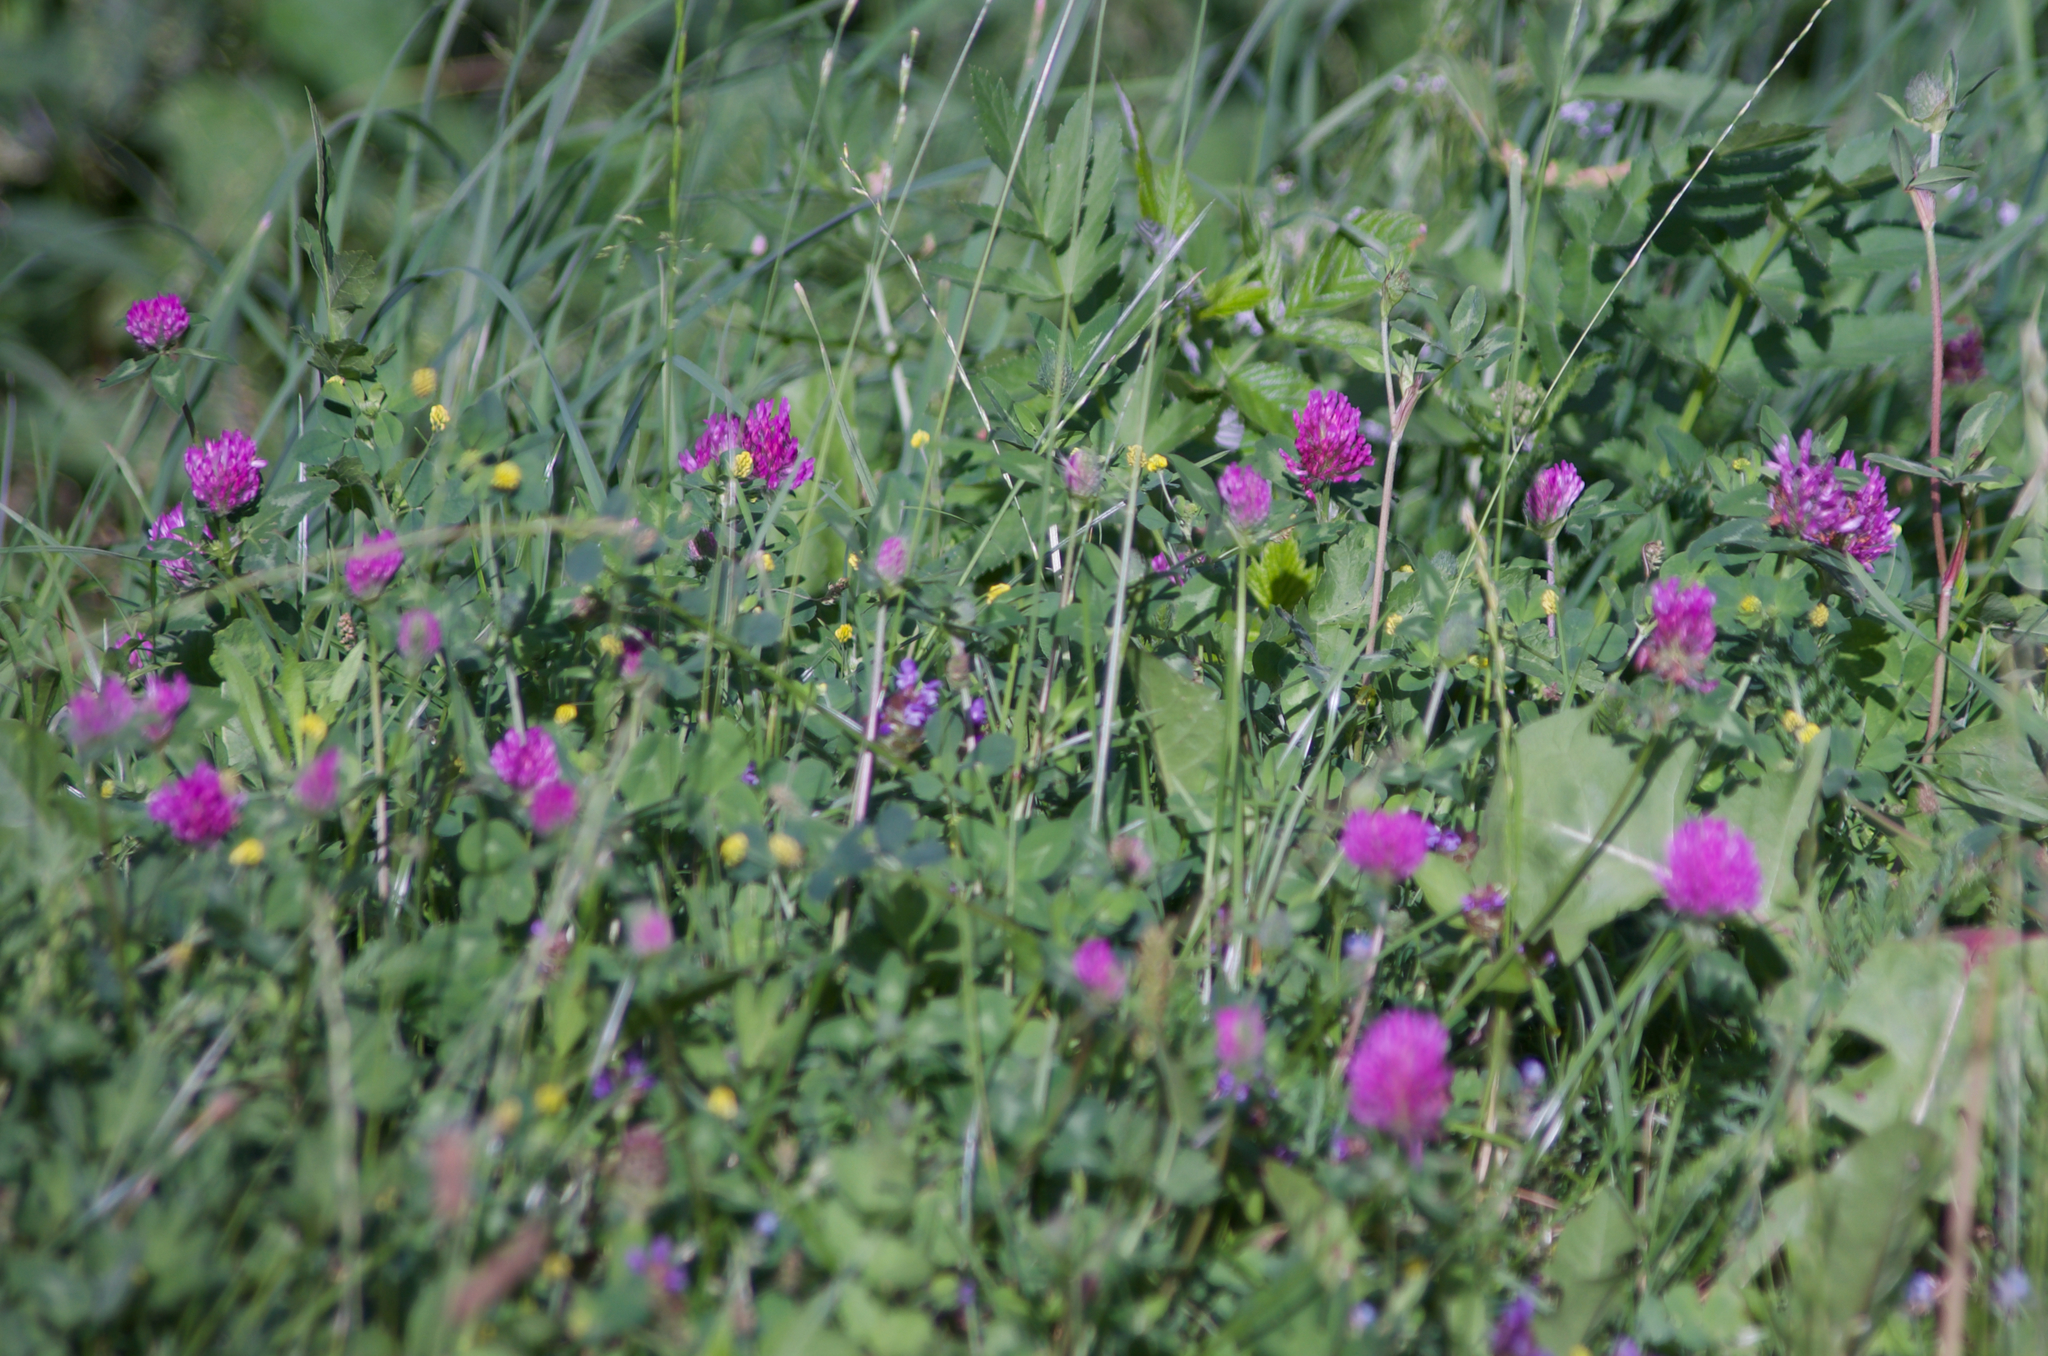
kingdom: Plantae
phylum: Tracheophyta
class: Magnoliopsida
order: Fabales
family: Fabaceae
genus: Trifolium
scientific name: Trifolium pratense
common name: Red clover
